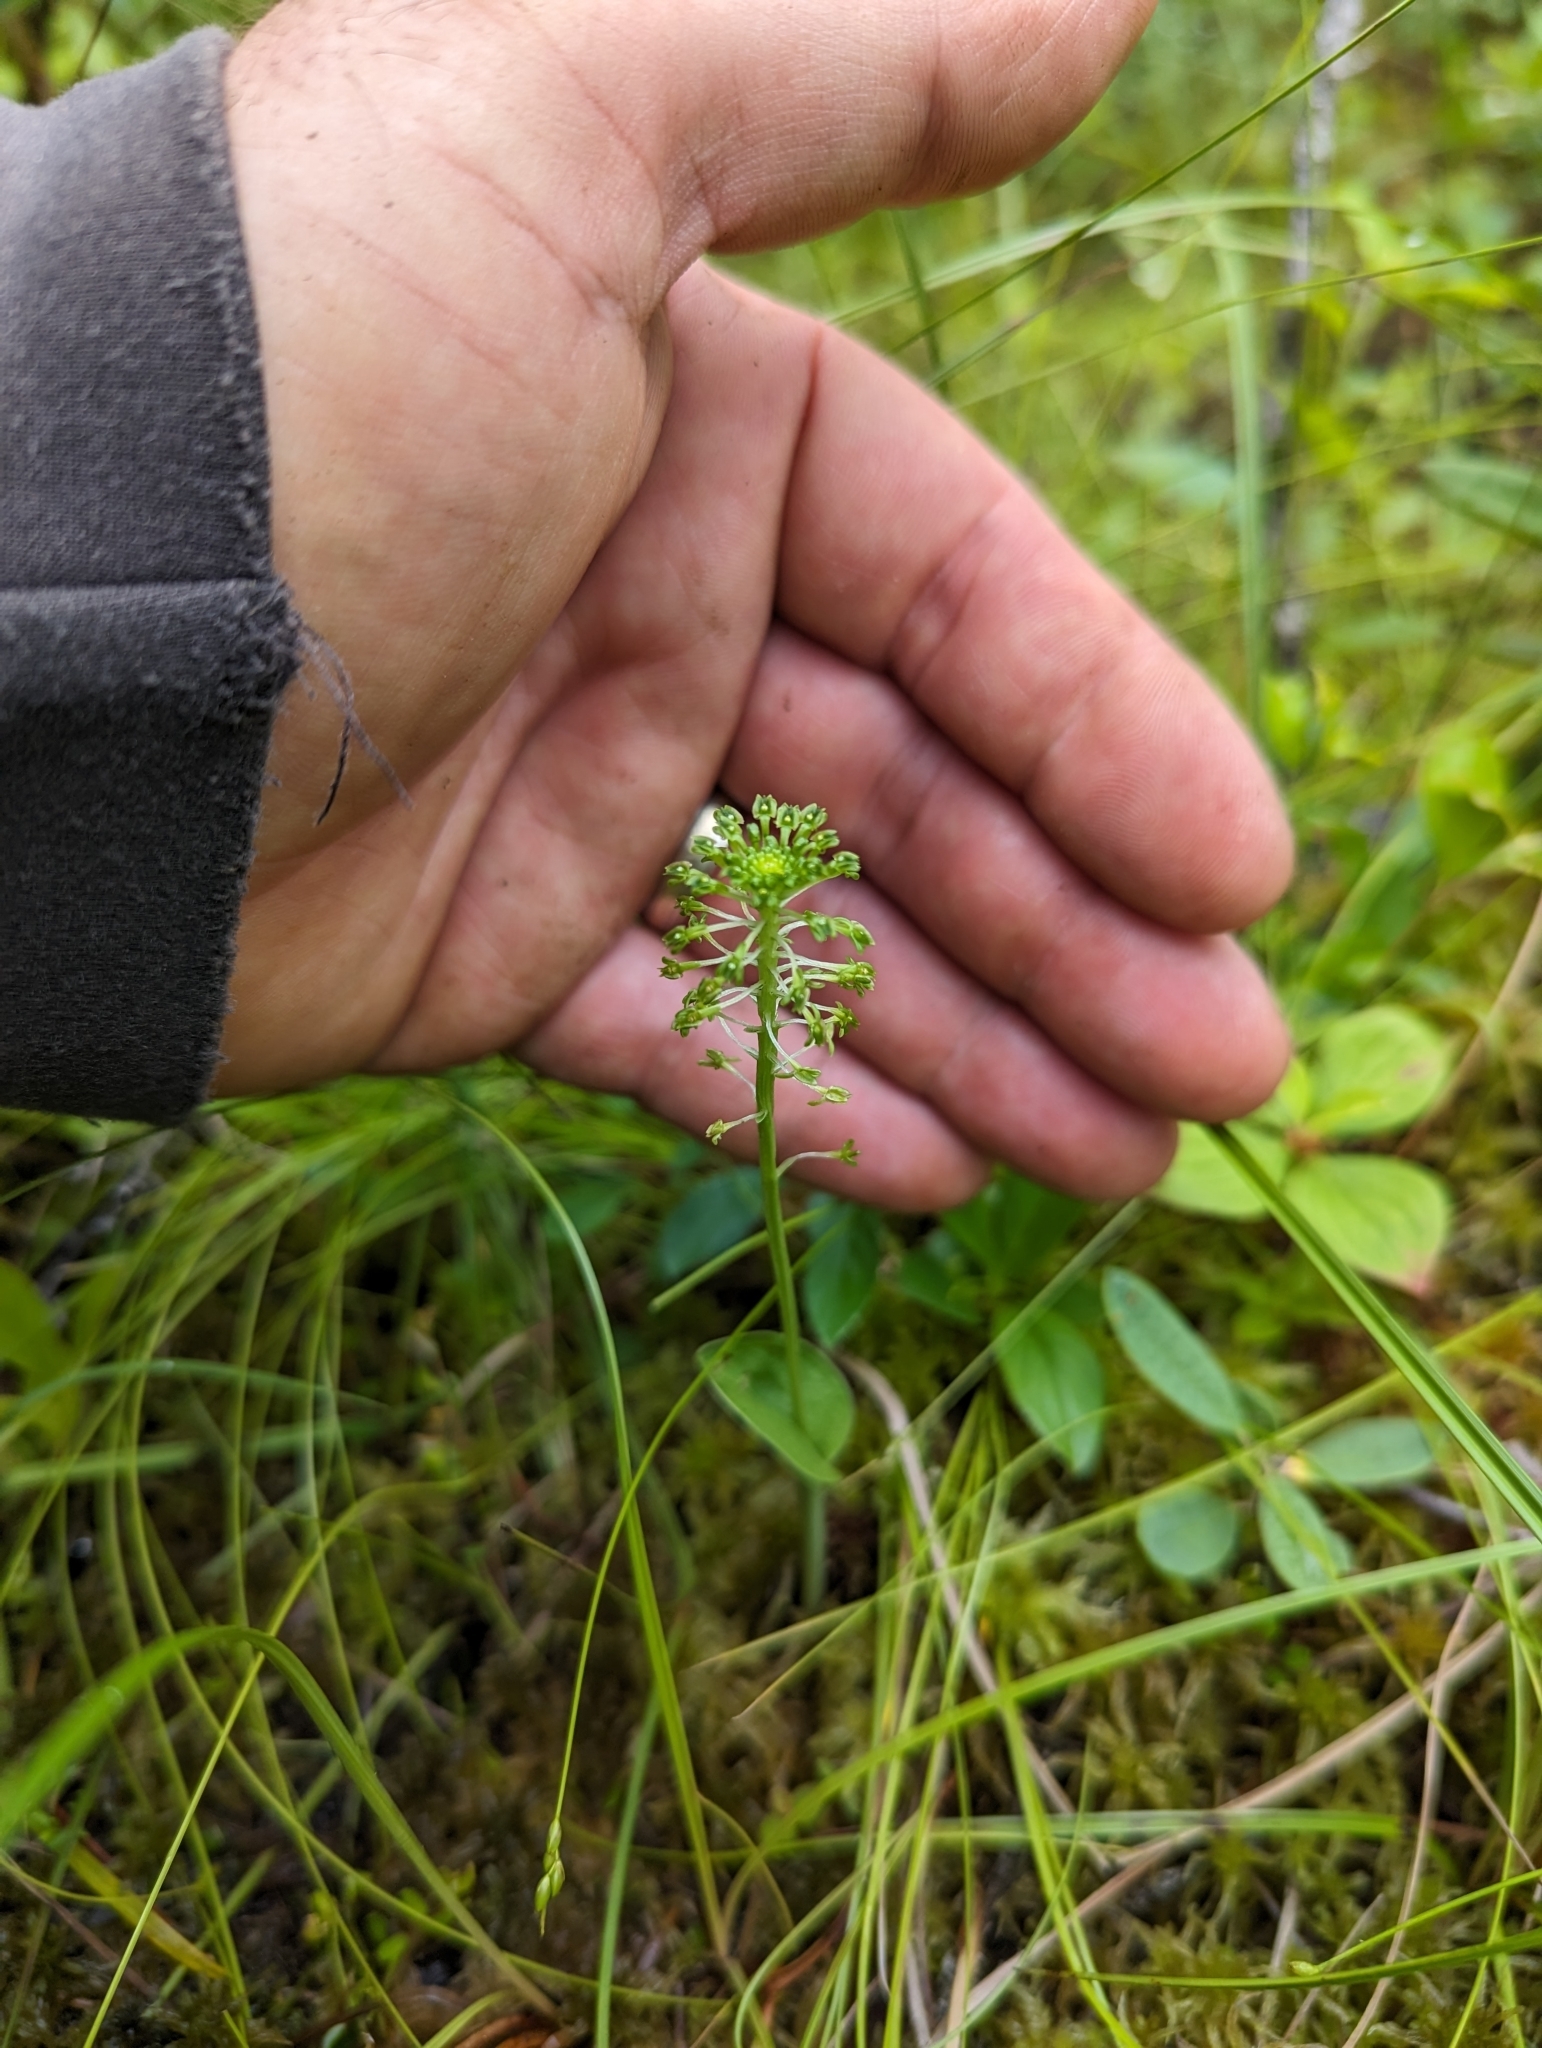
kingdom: Plantae
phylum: Tracheophyta
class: Liliopsida
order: Asparagales
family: Orchidaceae
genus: Malaxis
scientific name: Malaxis unifolia
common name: Green adder's-mouth
